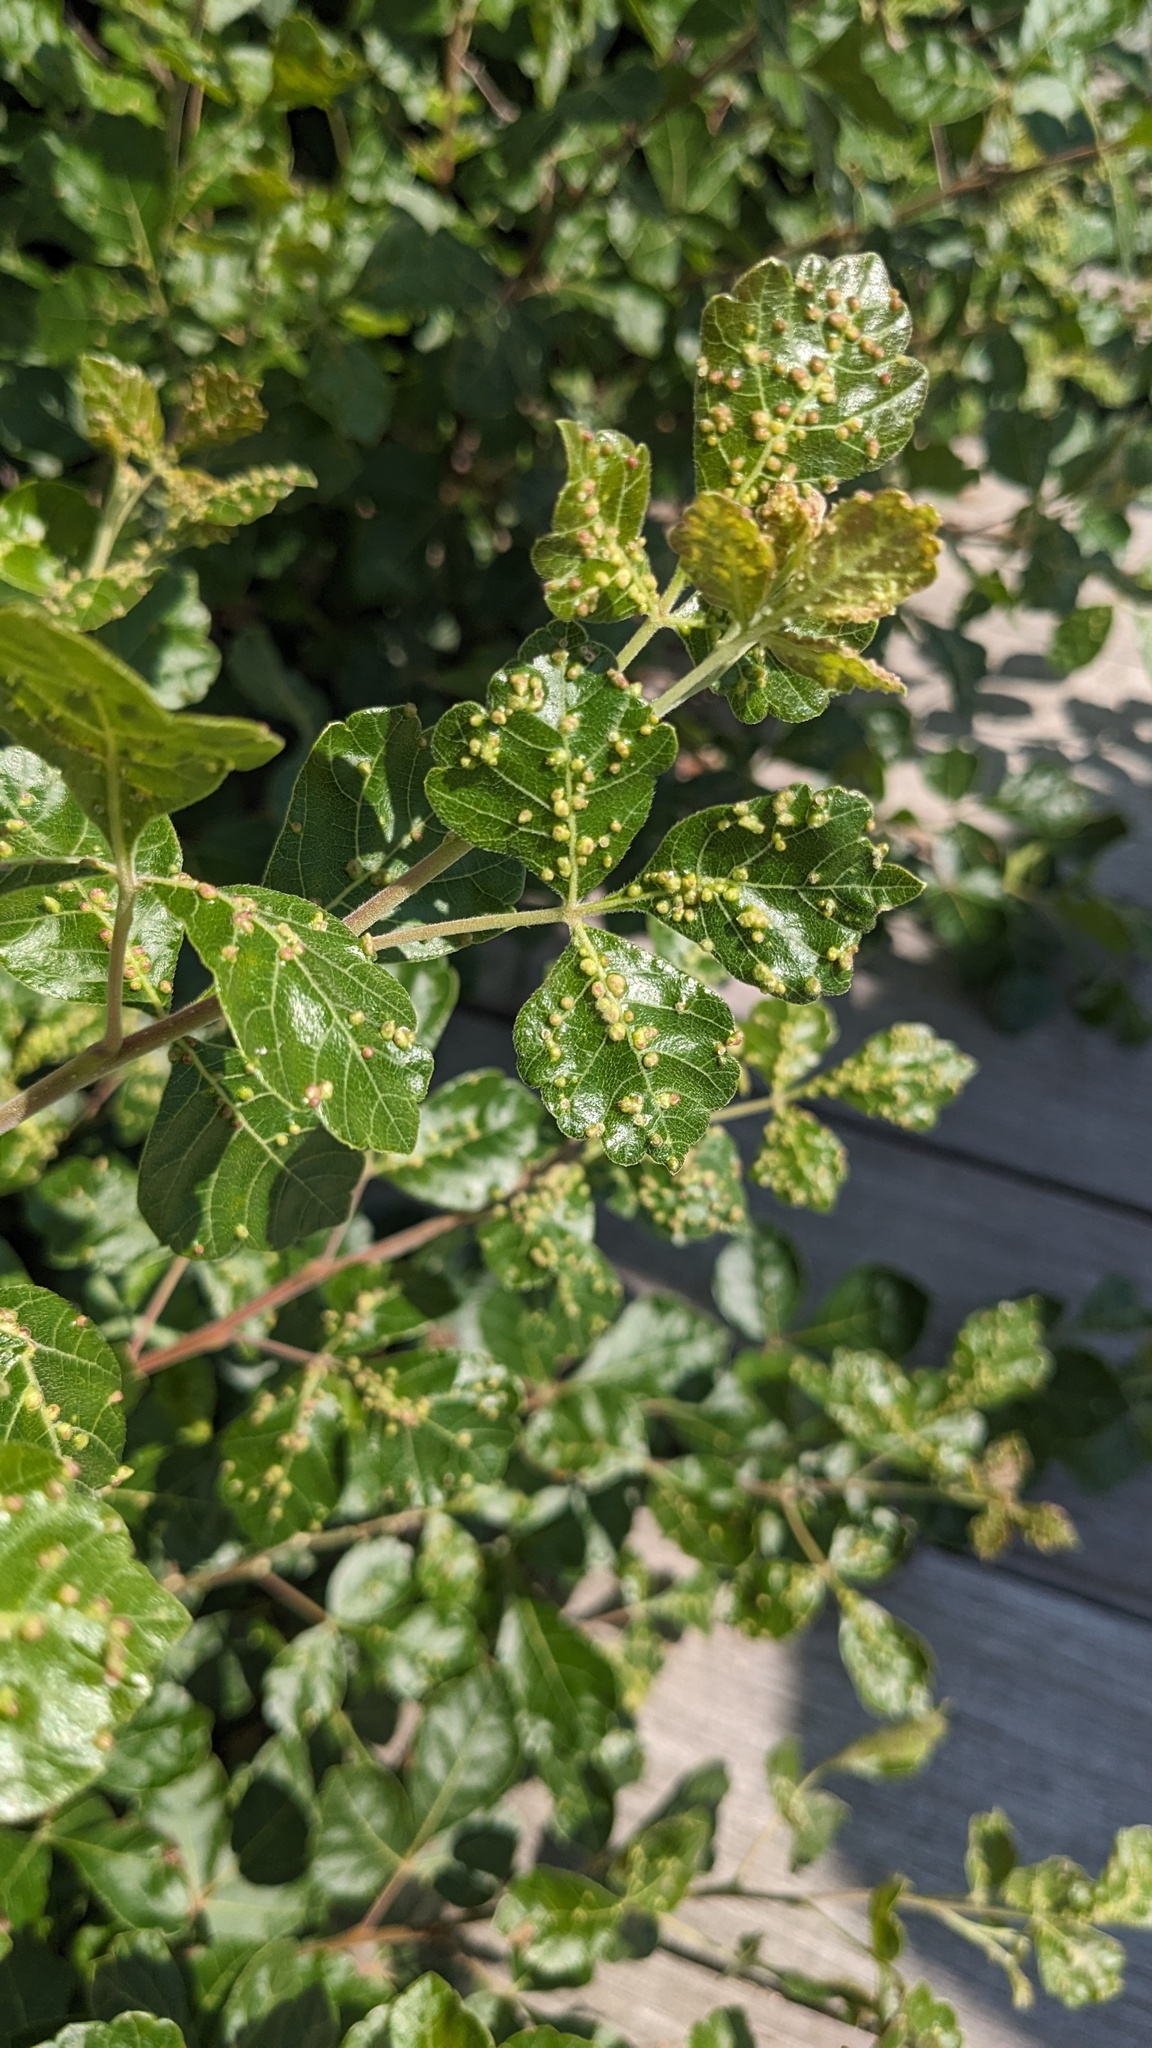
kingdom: Animalia
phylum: Arthropoda
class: Arachnida
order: Trombidiformes
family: Eriophyidae
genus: Aculops
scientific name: Aculops
